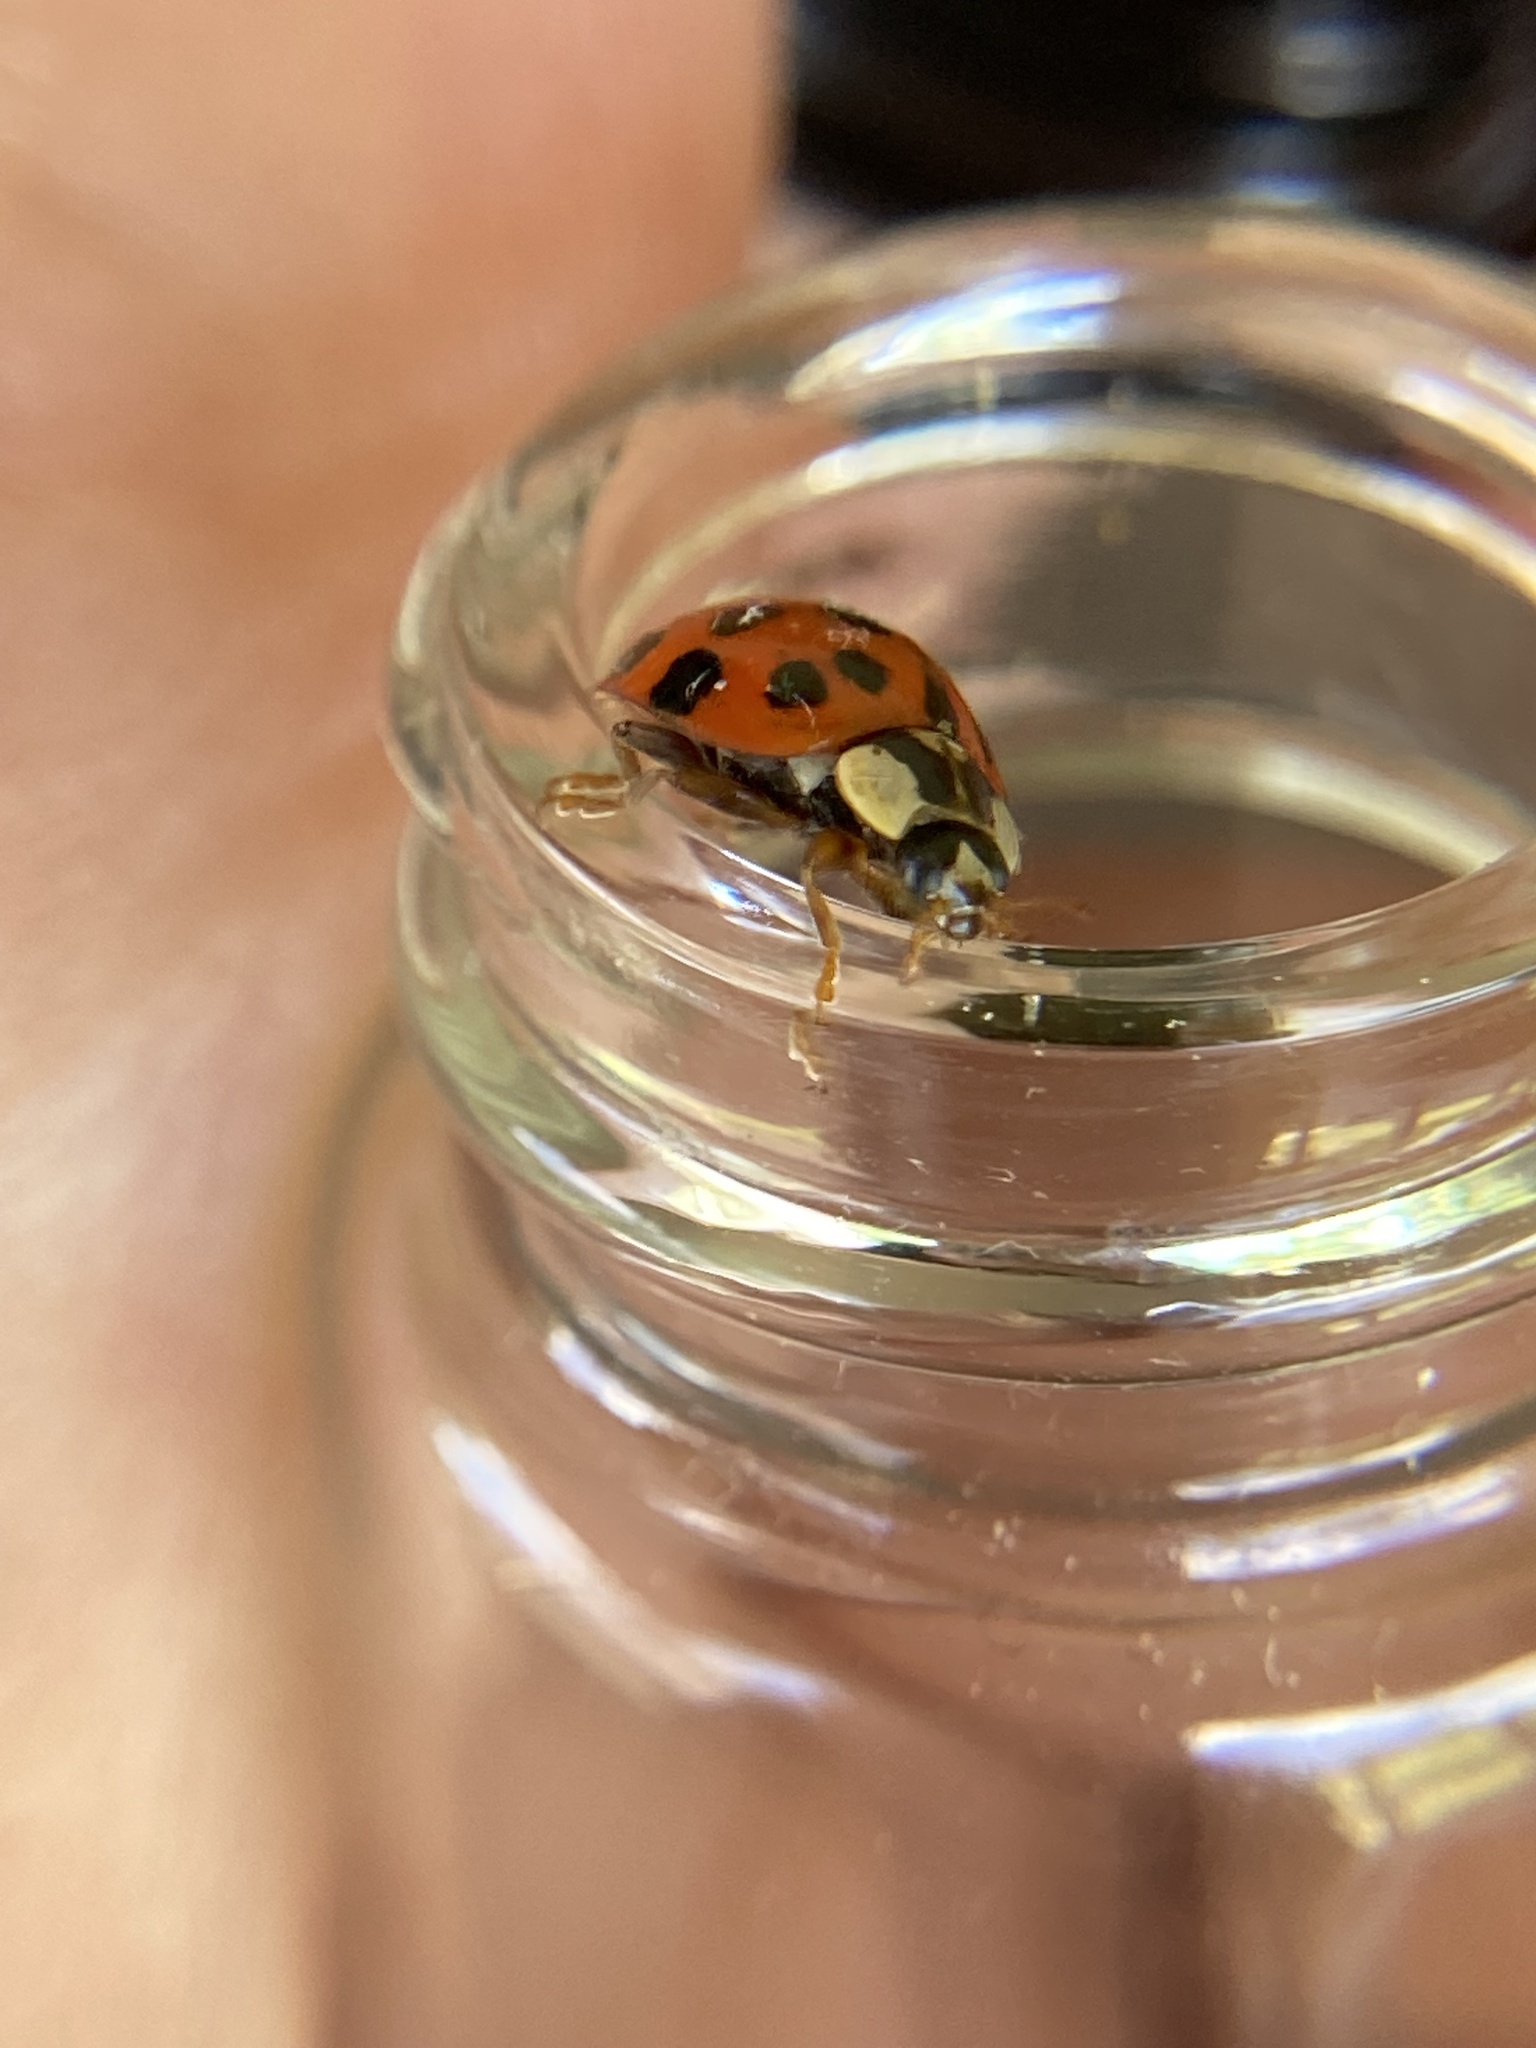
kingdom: Animalia
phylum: Arthropoda
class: Insecta
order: Coleoptera
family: Coccinellidae
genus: Harmonia
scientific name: Harmonia axyridis
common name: Harlequin ladybird
